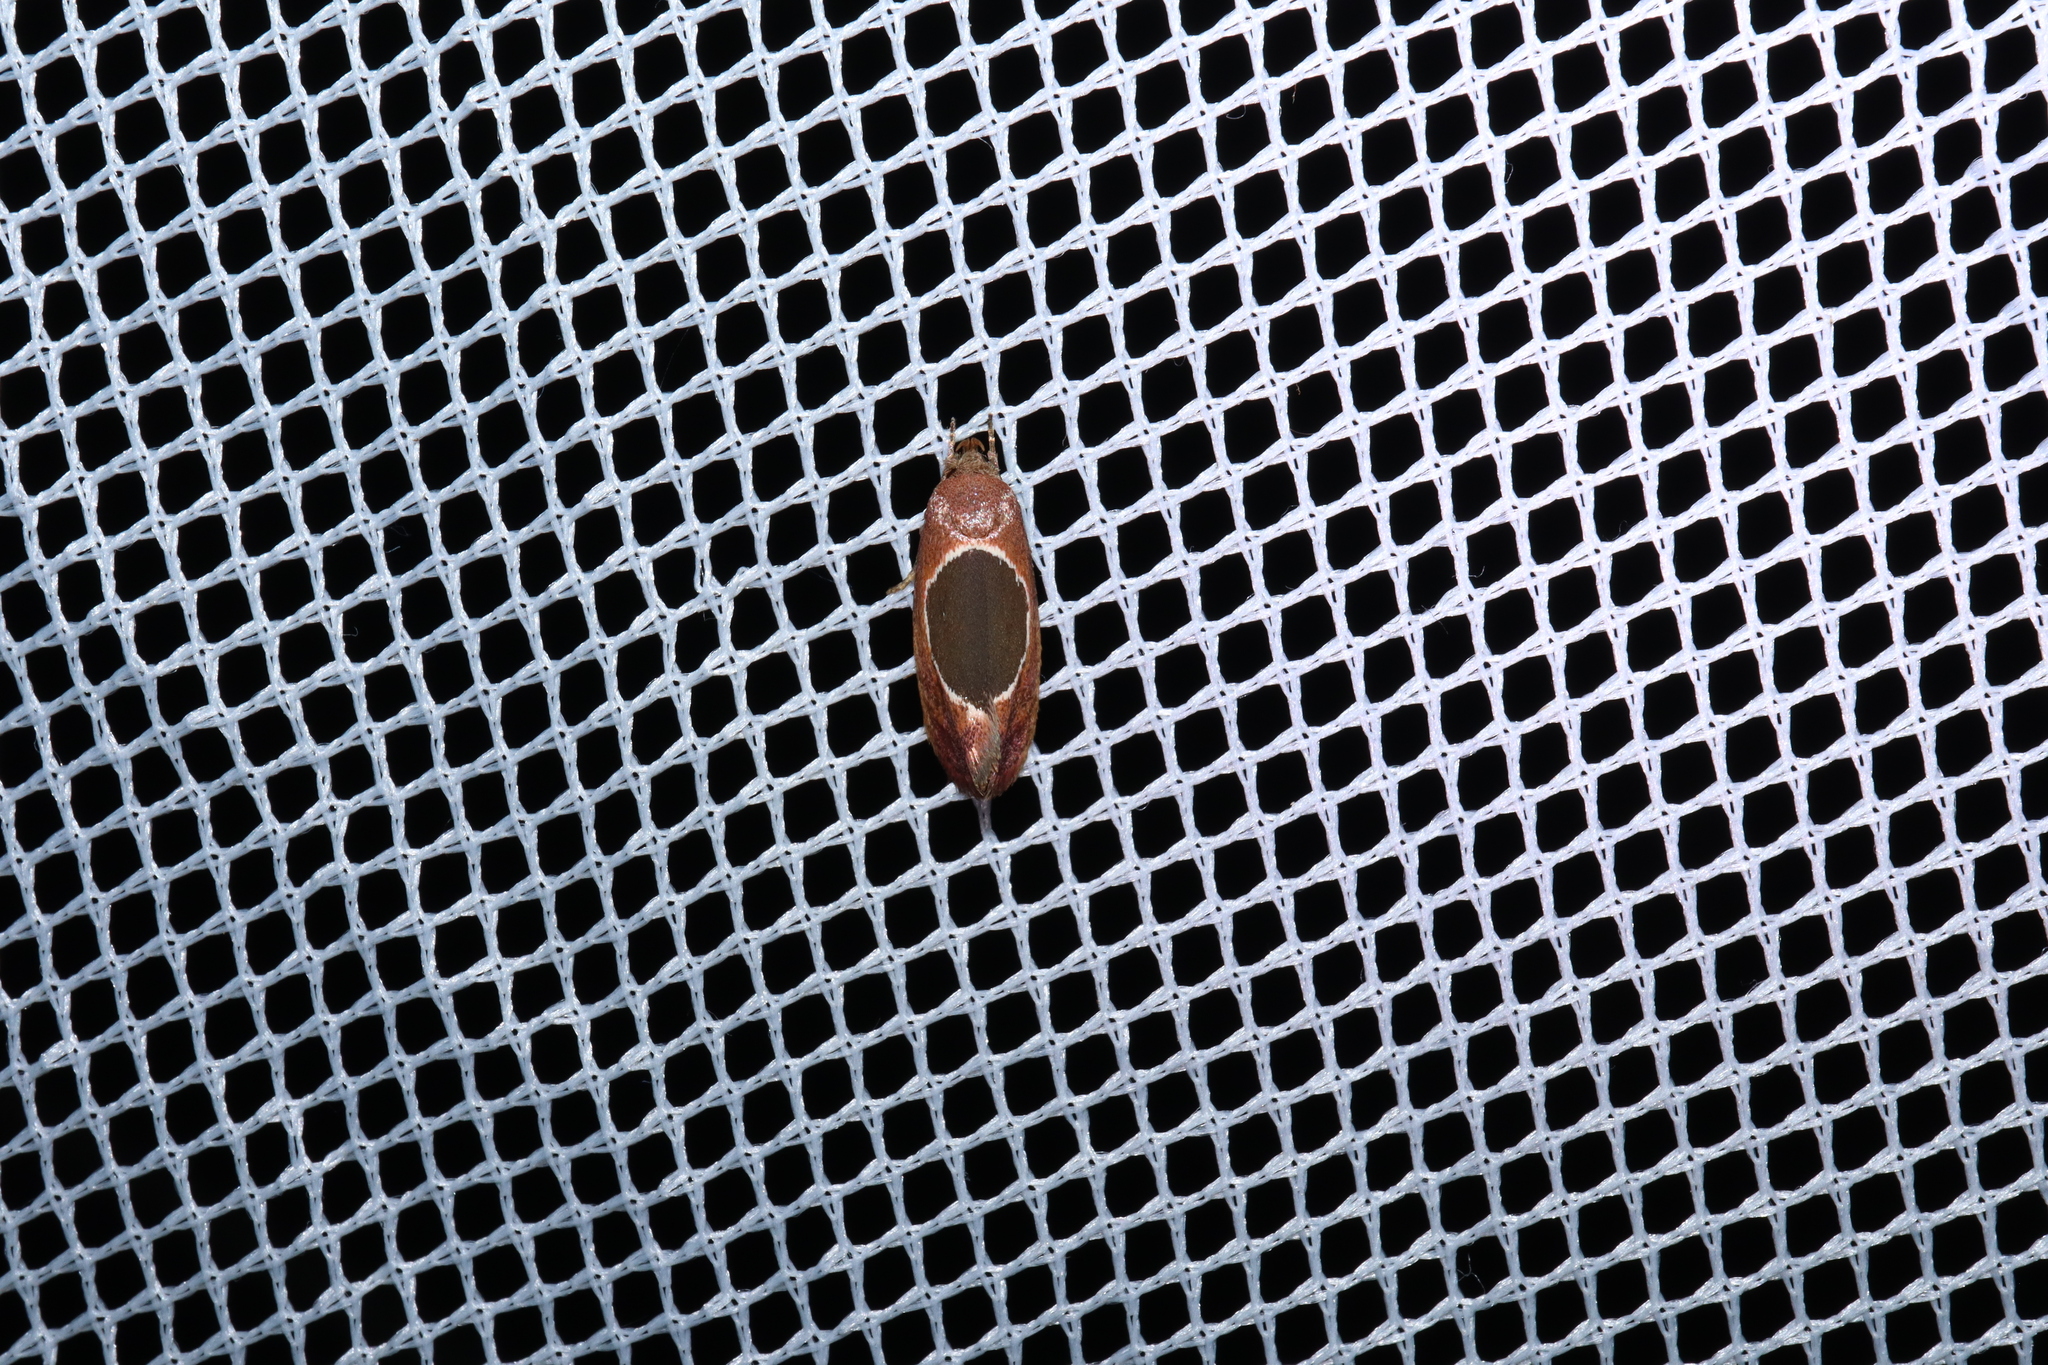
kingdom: Animalia
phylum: Arthropoda
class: Insecta
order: Lepidoptera
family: Oecophoridae
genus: Hoplomorpha
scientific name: Hoplomorpha abalienella
